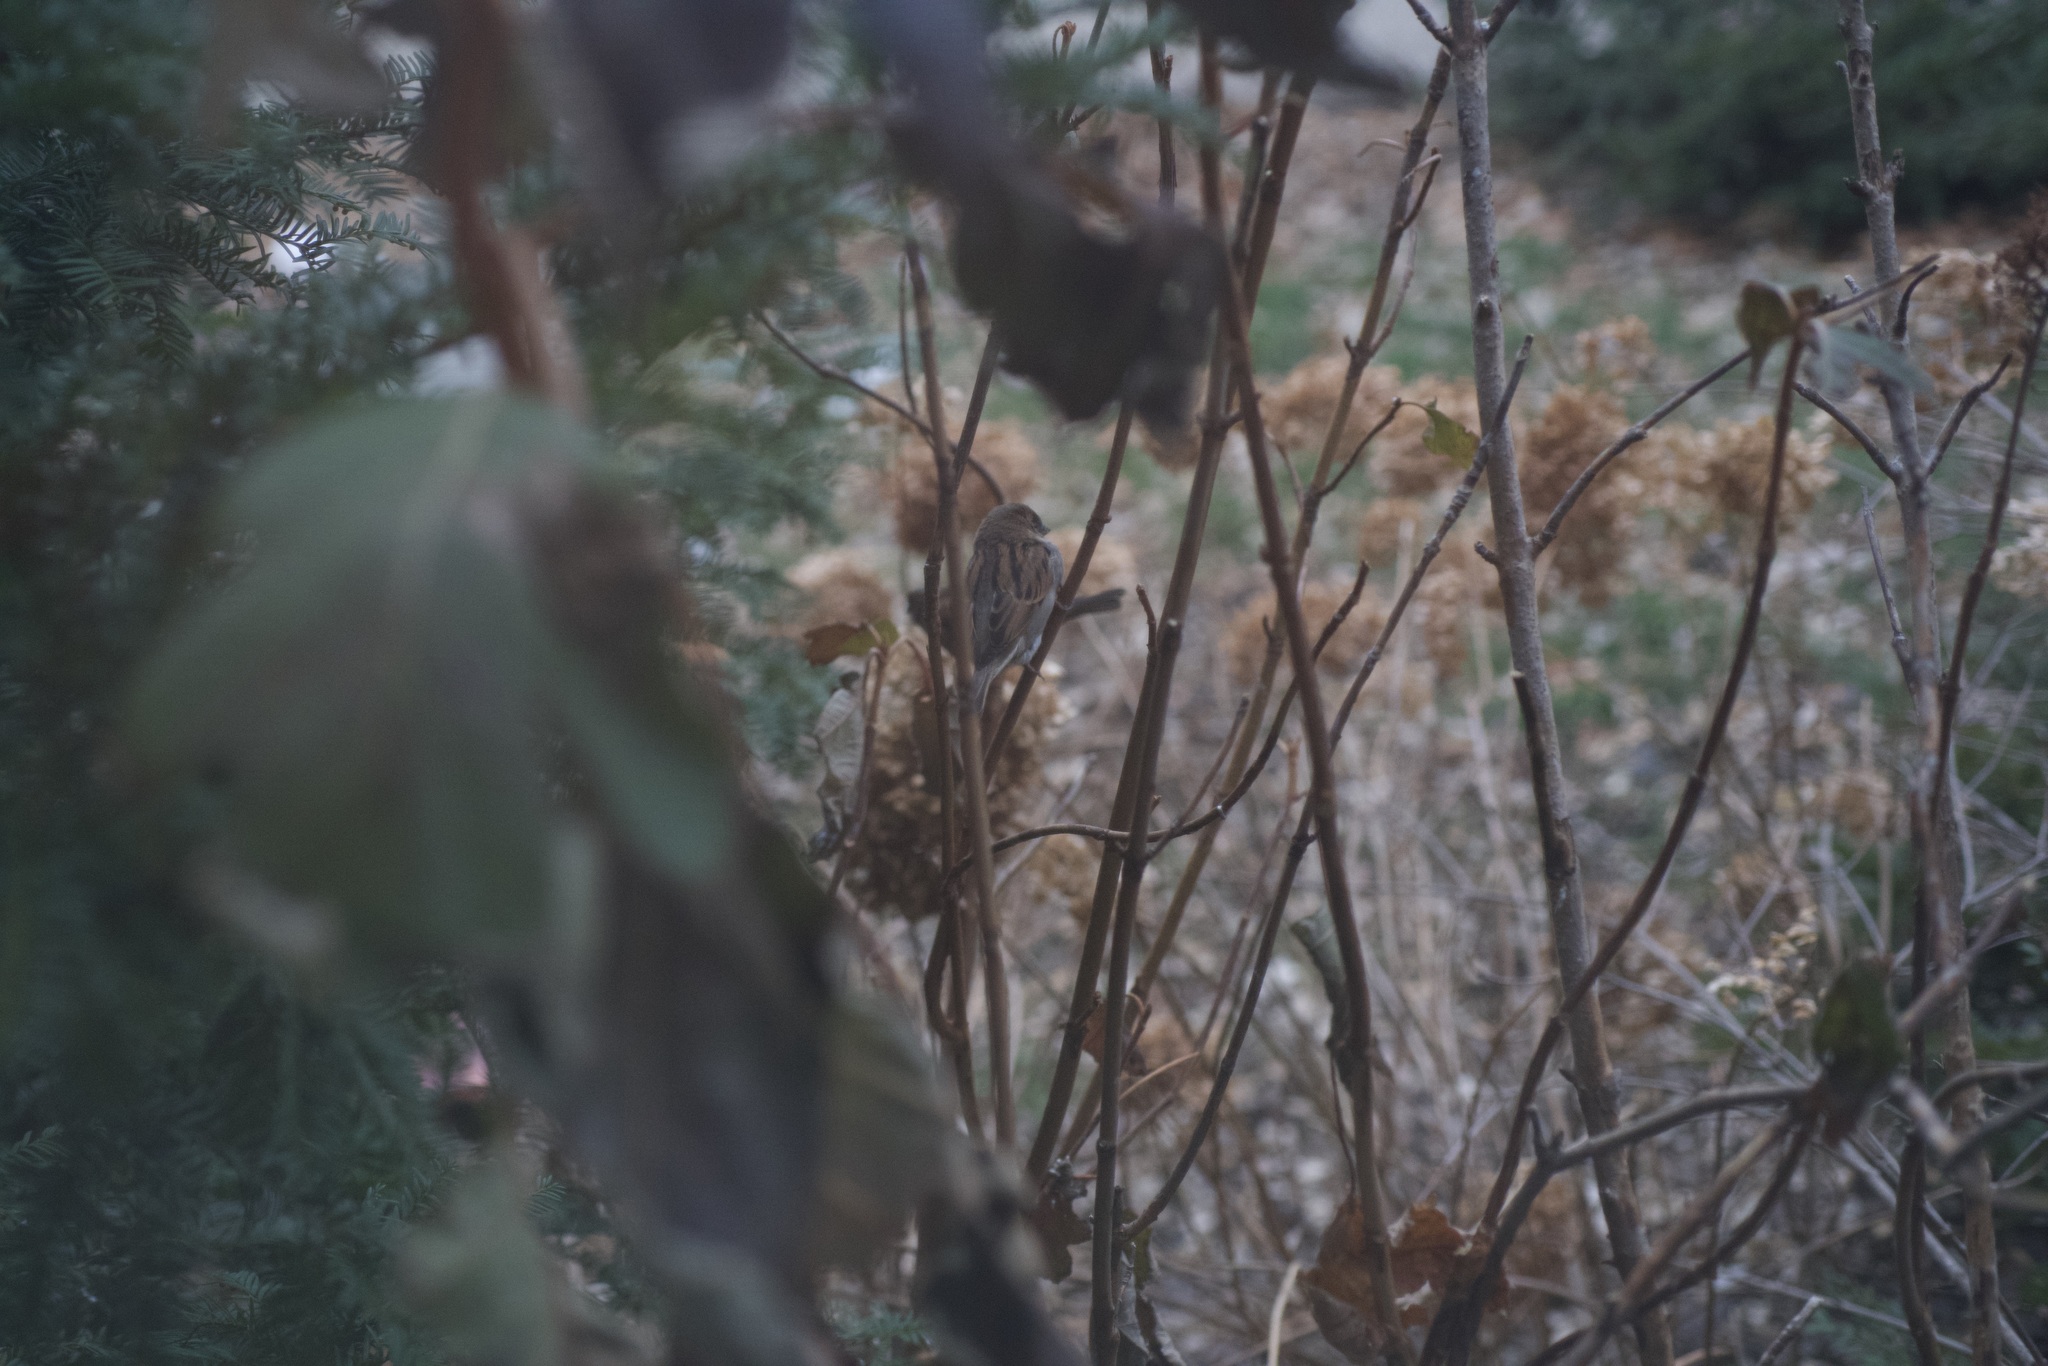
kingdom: Animalia
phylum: Chordata
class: Aves
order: Passeriformes
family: Passeridae
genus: Passer
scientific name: Passer domesticus
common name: House sparrow
